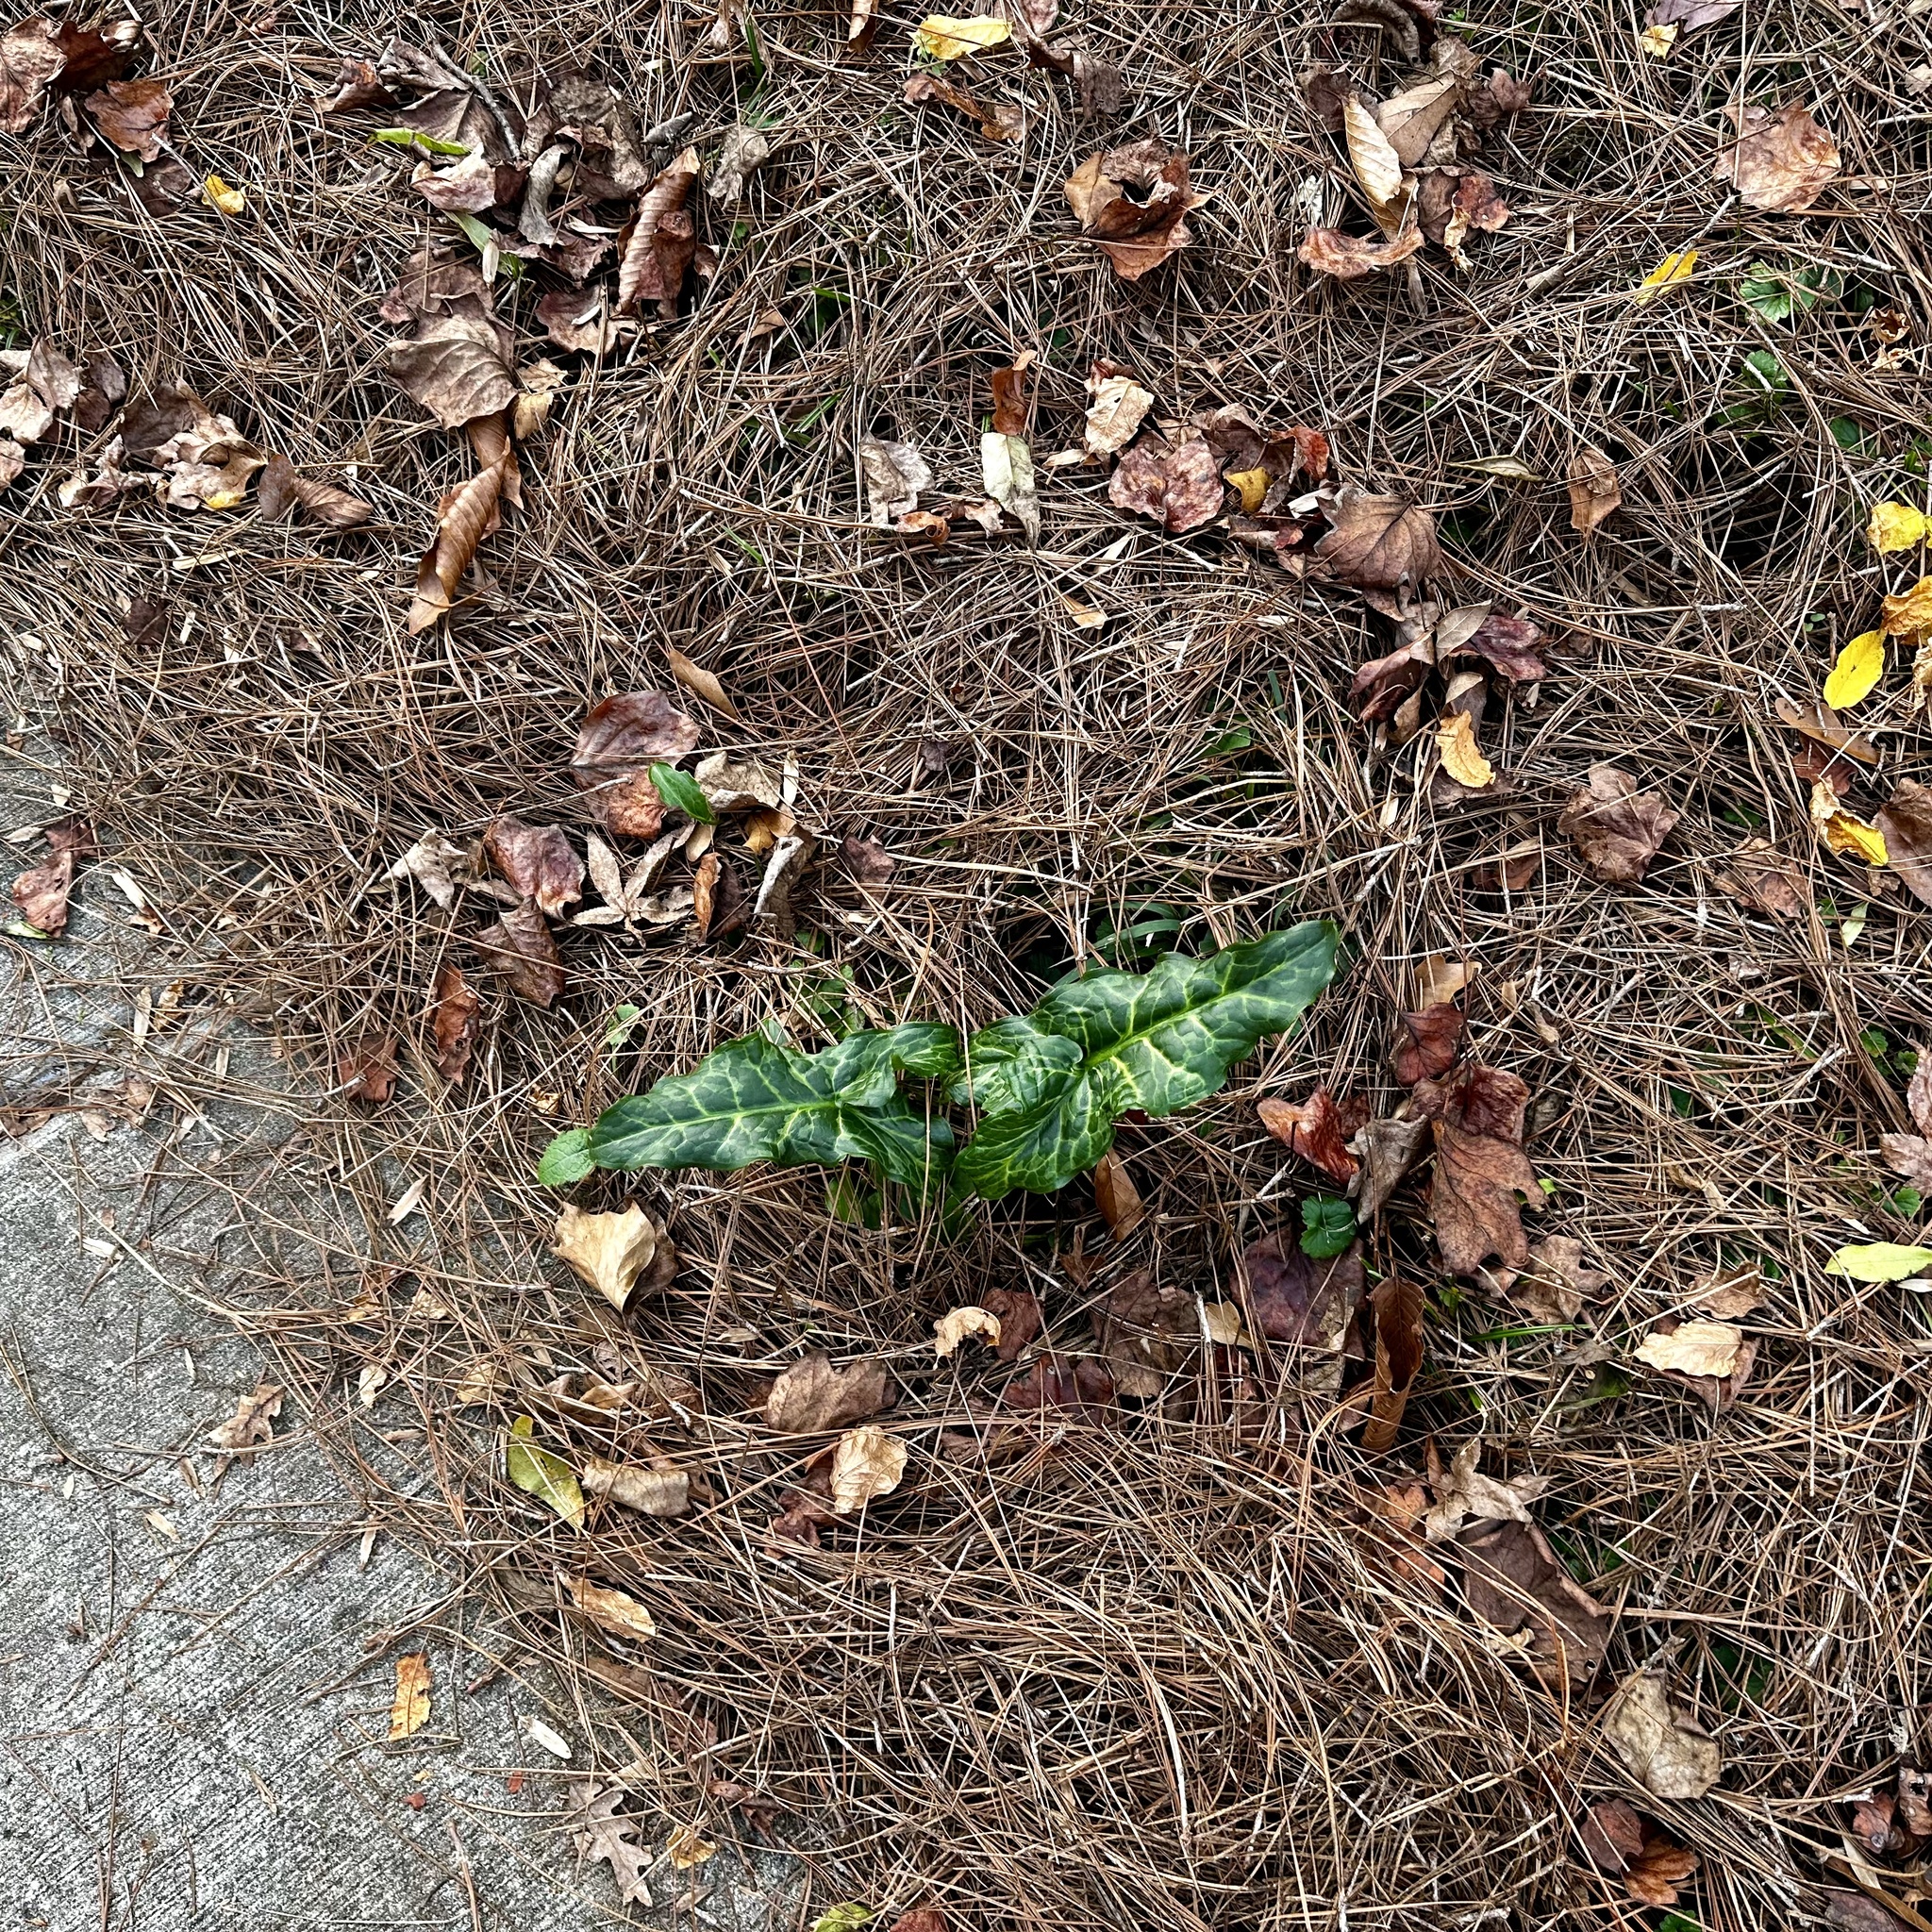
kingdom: Plantae
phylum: Tracheophyta
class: Liliopsida
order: Alismatales
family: Araceae
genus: Arum
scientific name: Arum italicum
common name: Italian lords-and-ladies
